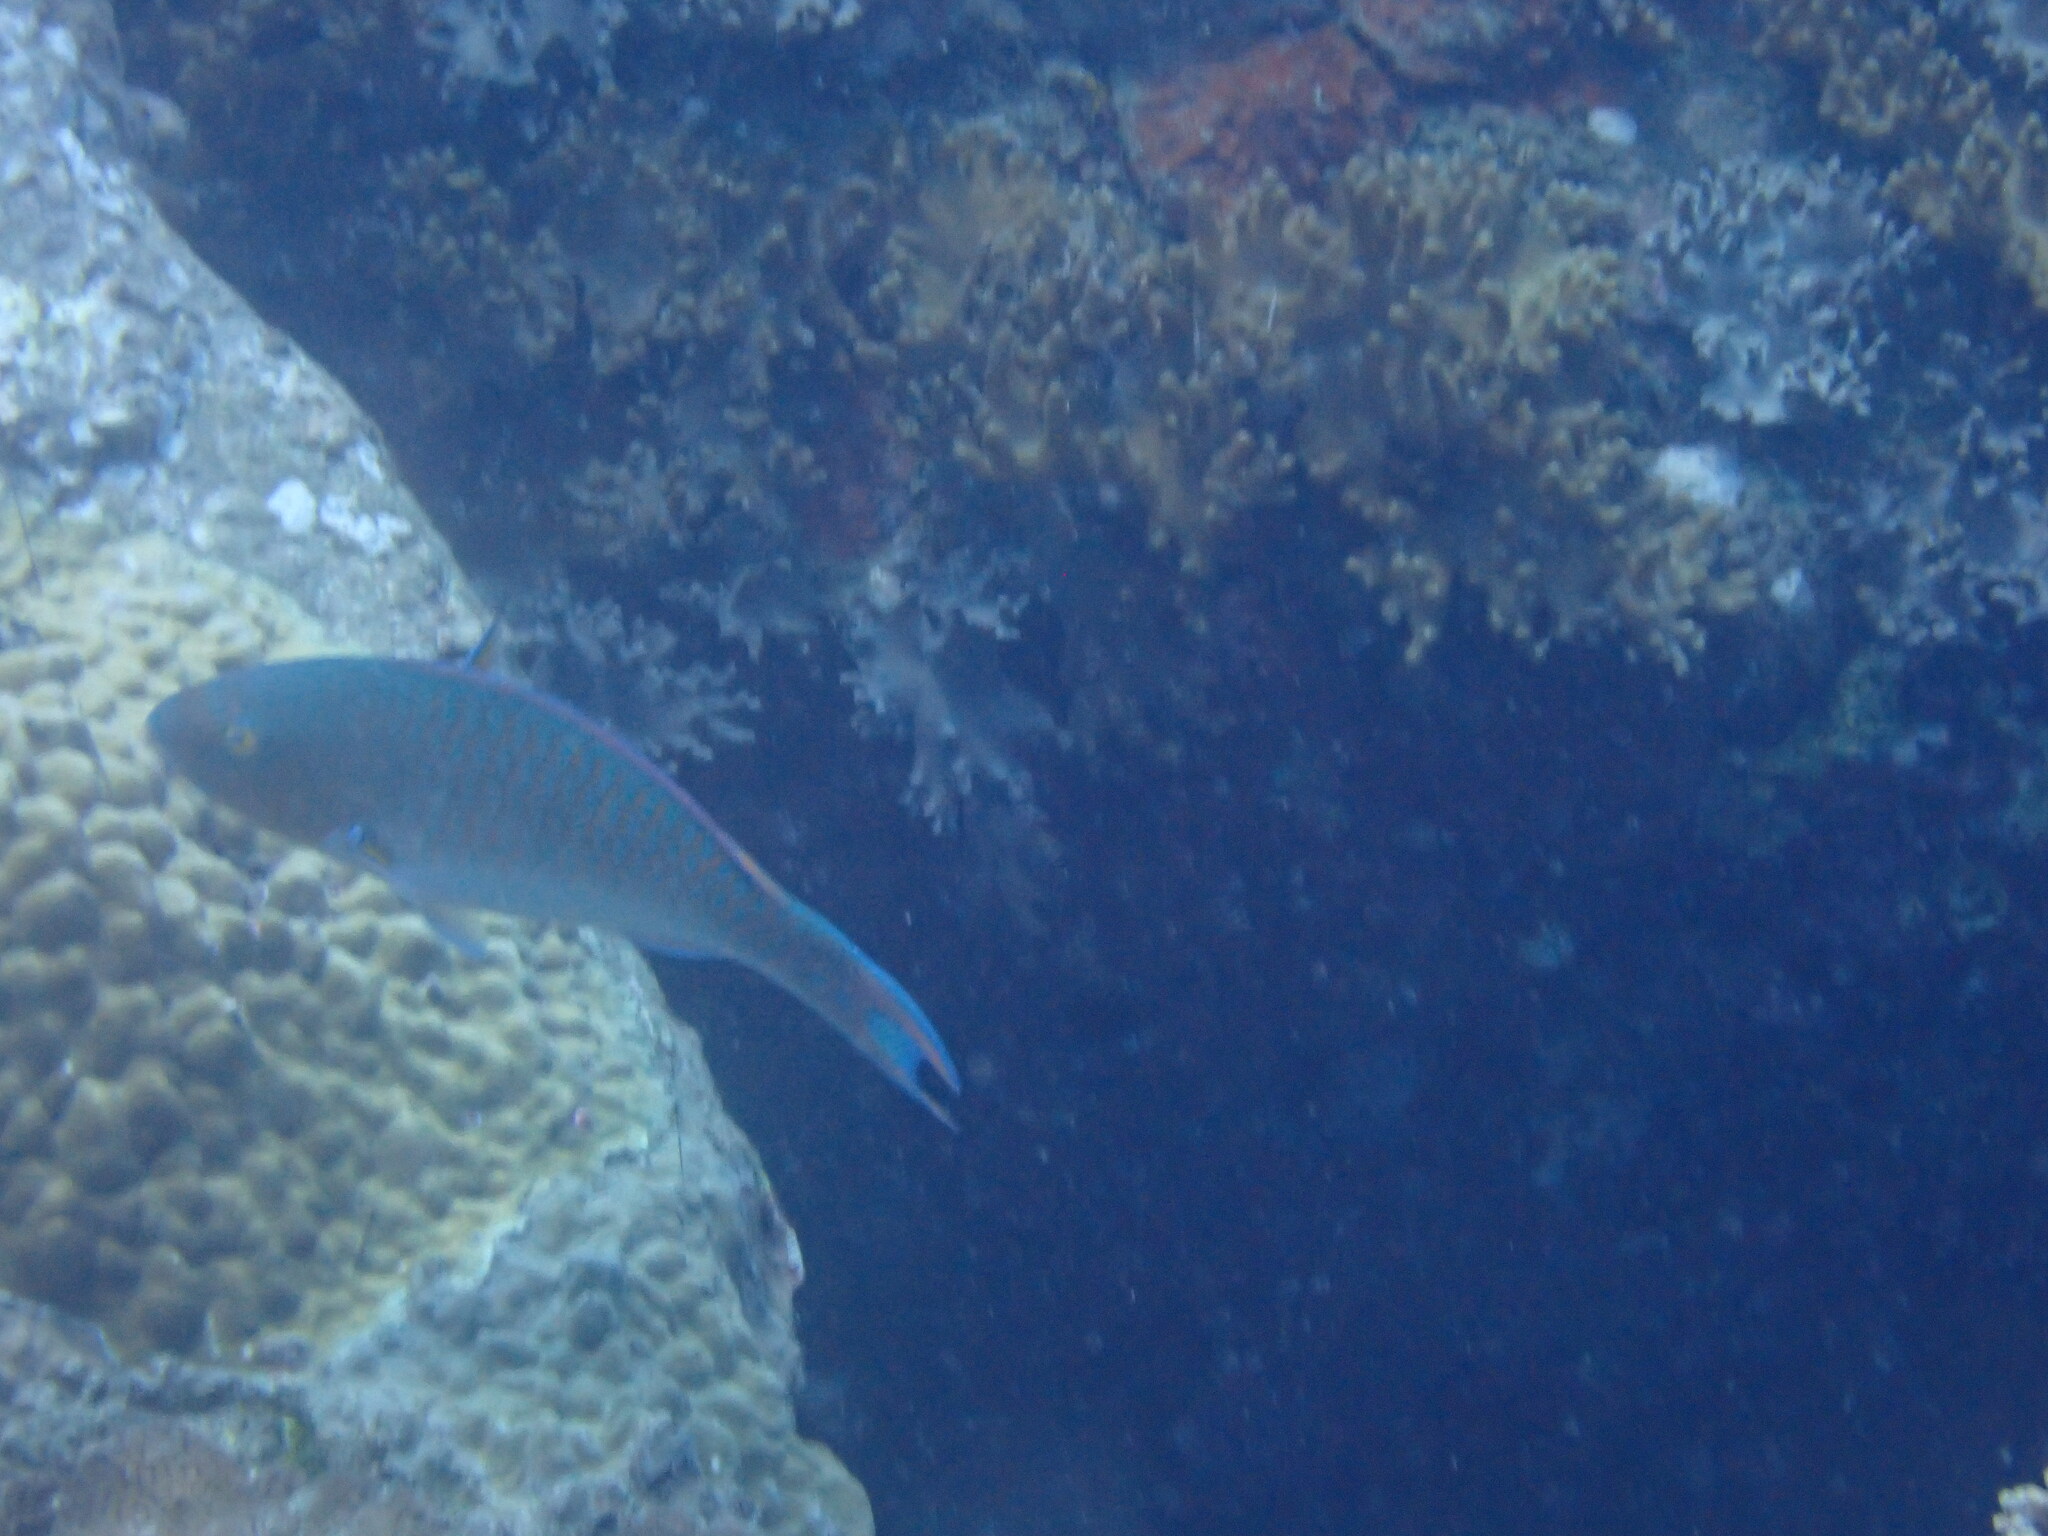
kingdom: Animalia
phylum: Chordata
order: Perciformes
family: Scaridae
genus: Scarus
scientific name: Scarus ghobban
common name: Blue-barred parrotfish
